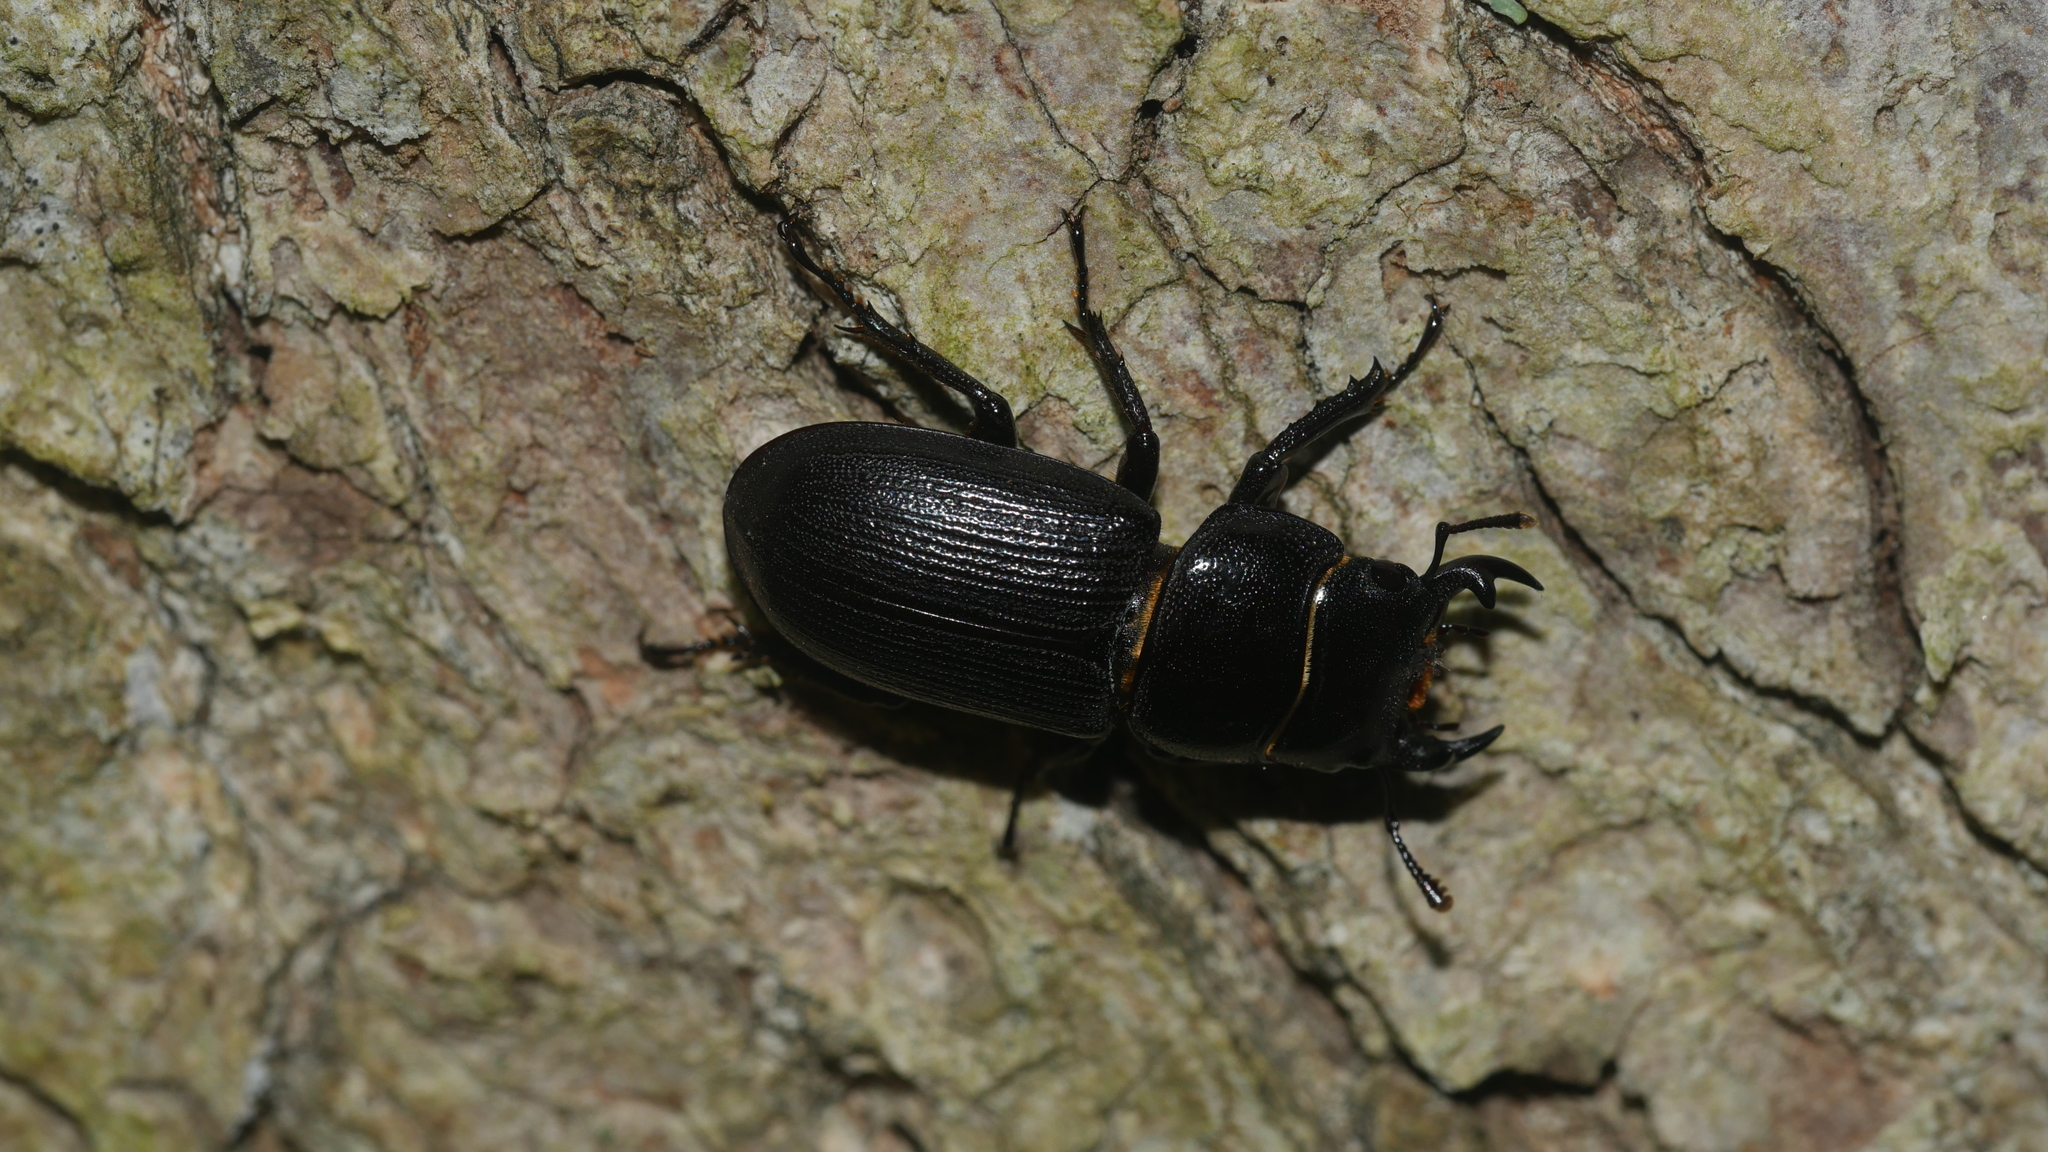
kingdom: Animalia
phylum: Arthropoda
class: Insecta
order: Coleoptera
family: Lucanidae
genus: Dorcus
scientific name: Dorcus parallelus
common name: Antelope beetle
